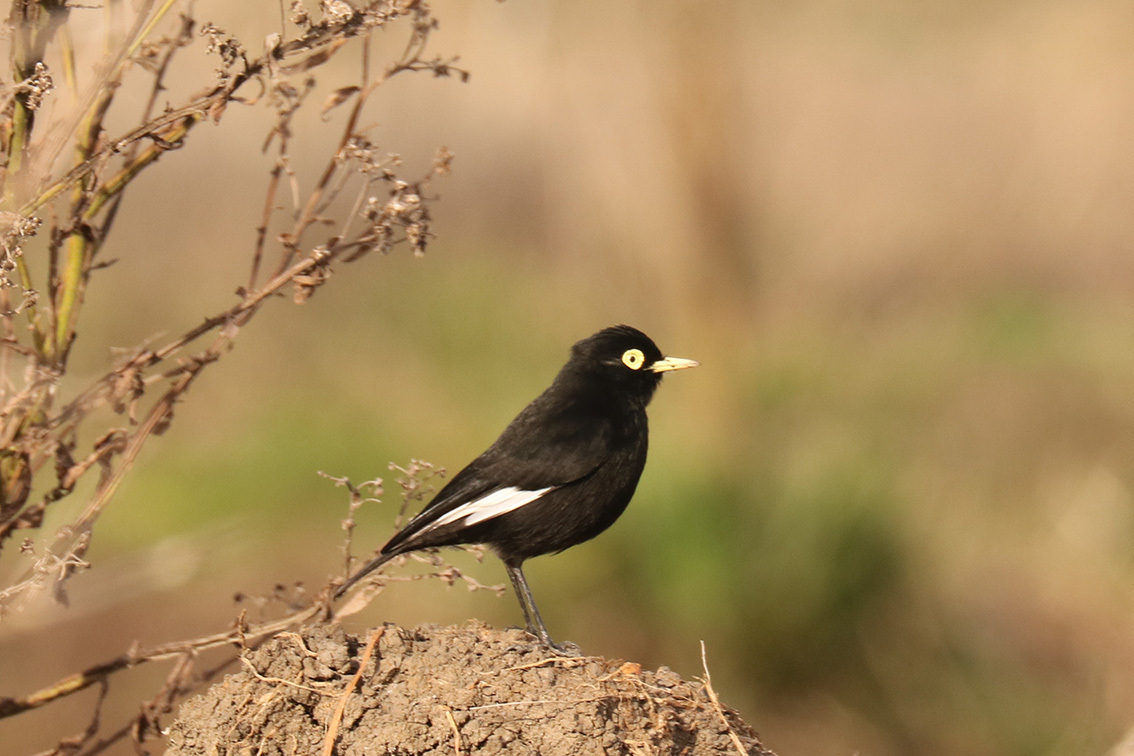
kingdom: Animalia
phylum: Chordata
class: Aves
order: Passeriformes
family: Tyrannidae
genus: Hymenops
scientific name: Hymenops perspicillatus
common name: Spectacled tyrant
